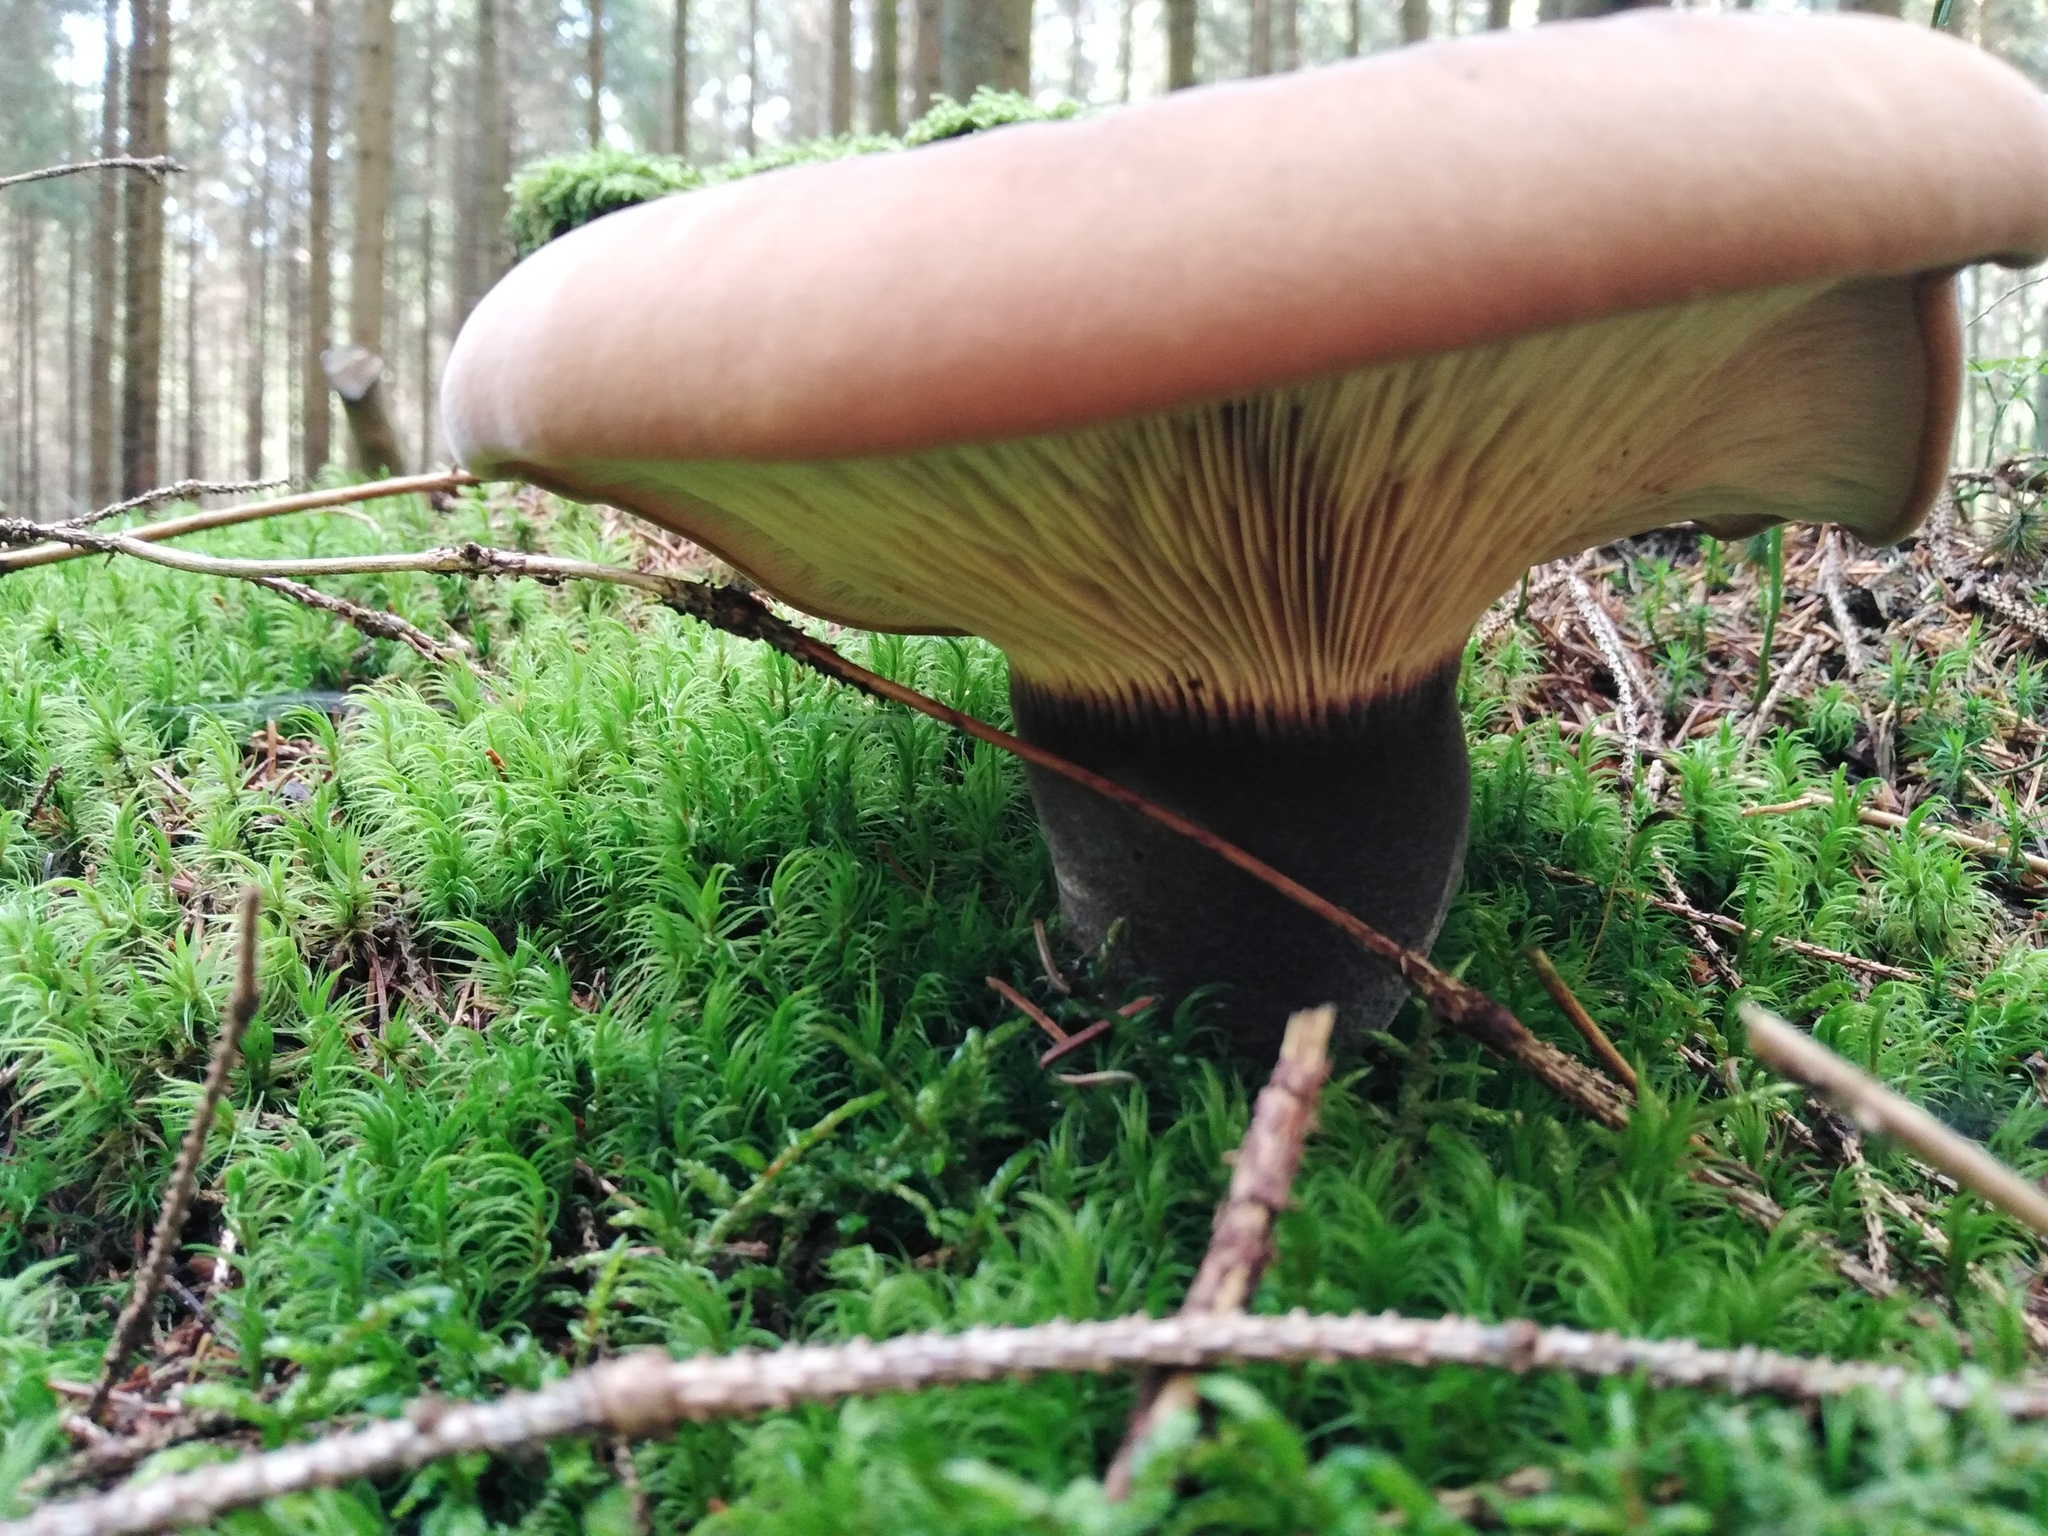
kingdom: Fungi
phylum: Basidiomycota
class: Agaricomycetes
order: Boletales
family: Tapinellaceae
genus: Tapinella
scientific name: Tapinella atrotomentosa
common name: Velvet rollrim
